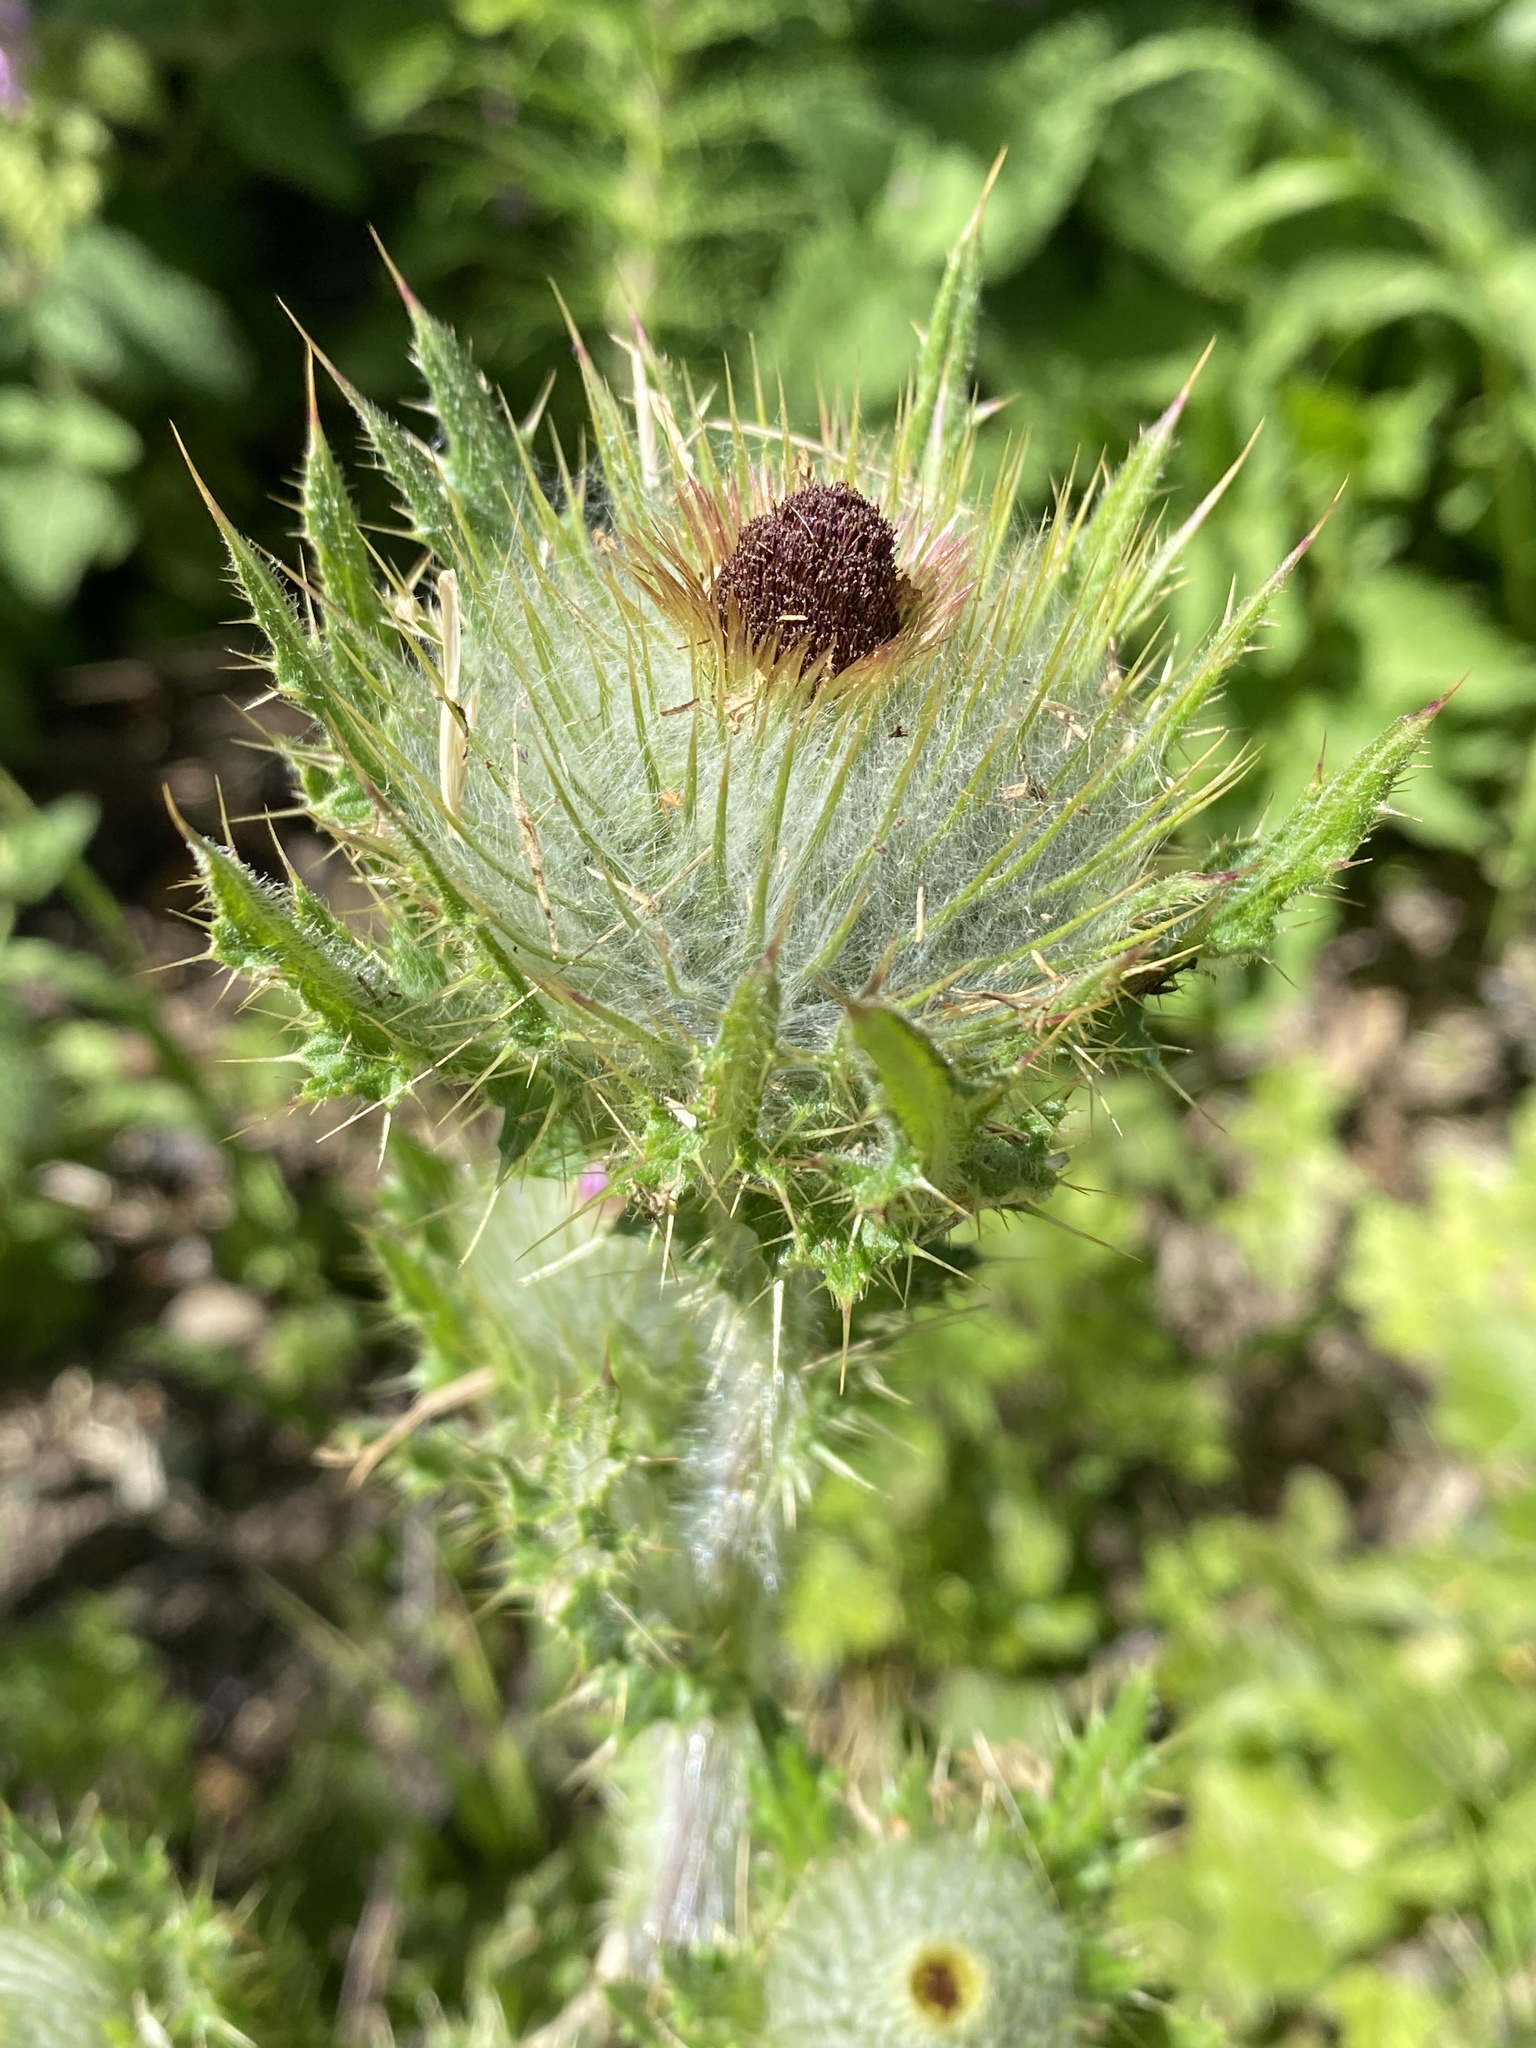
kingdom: Plantae
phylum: Tracheophyta
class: Magnoliopsida
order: Asterales
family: Asteraceae
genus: Cirsium
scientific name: Cirsium brevistylum
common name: Indian thistle
